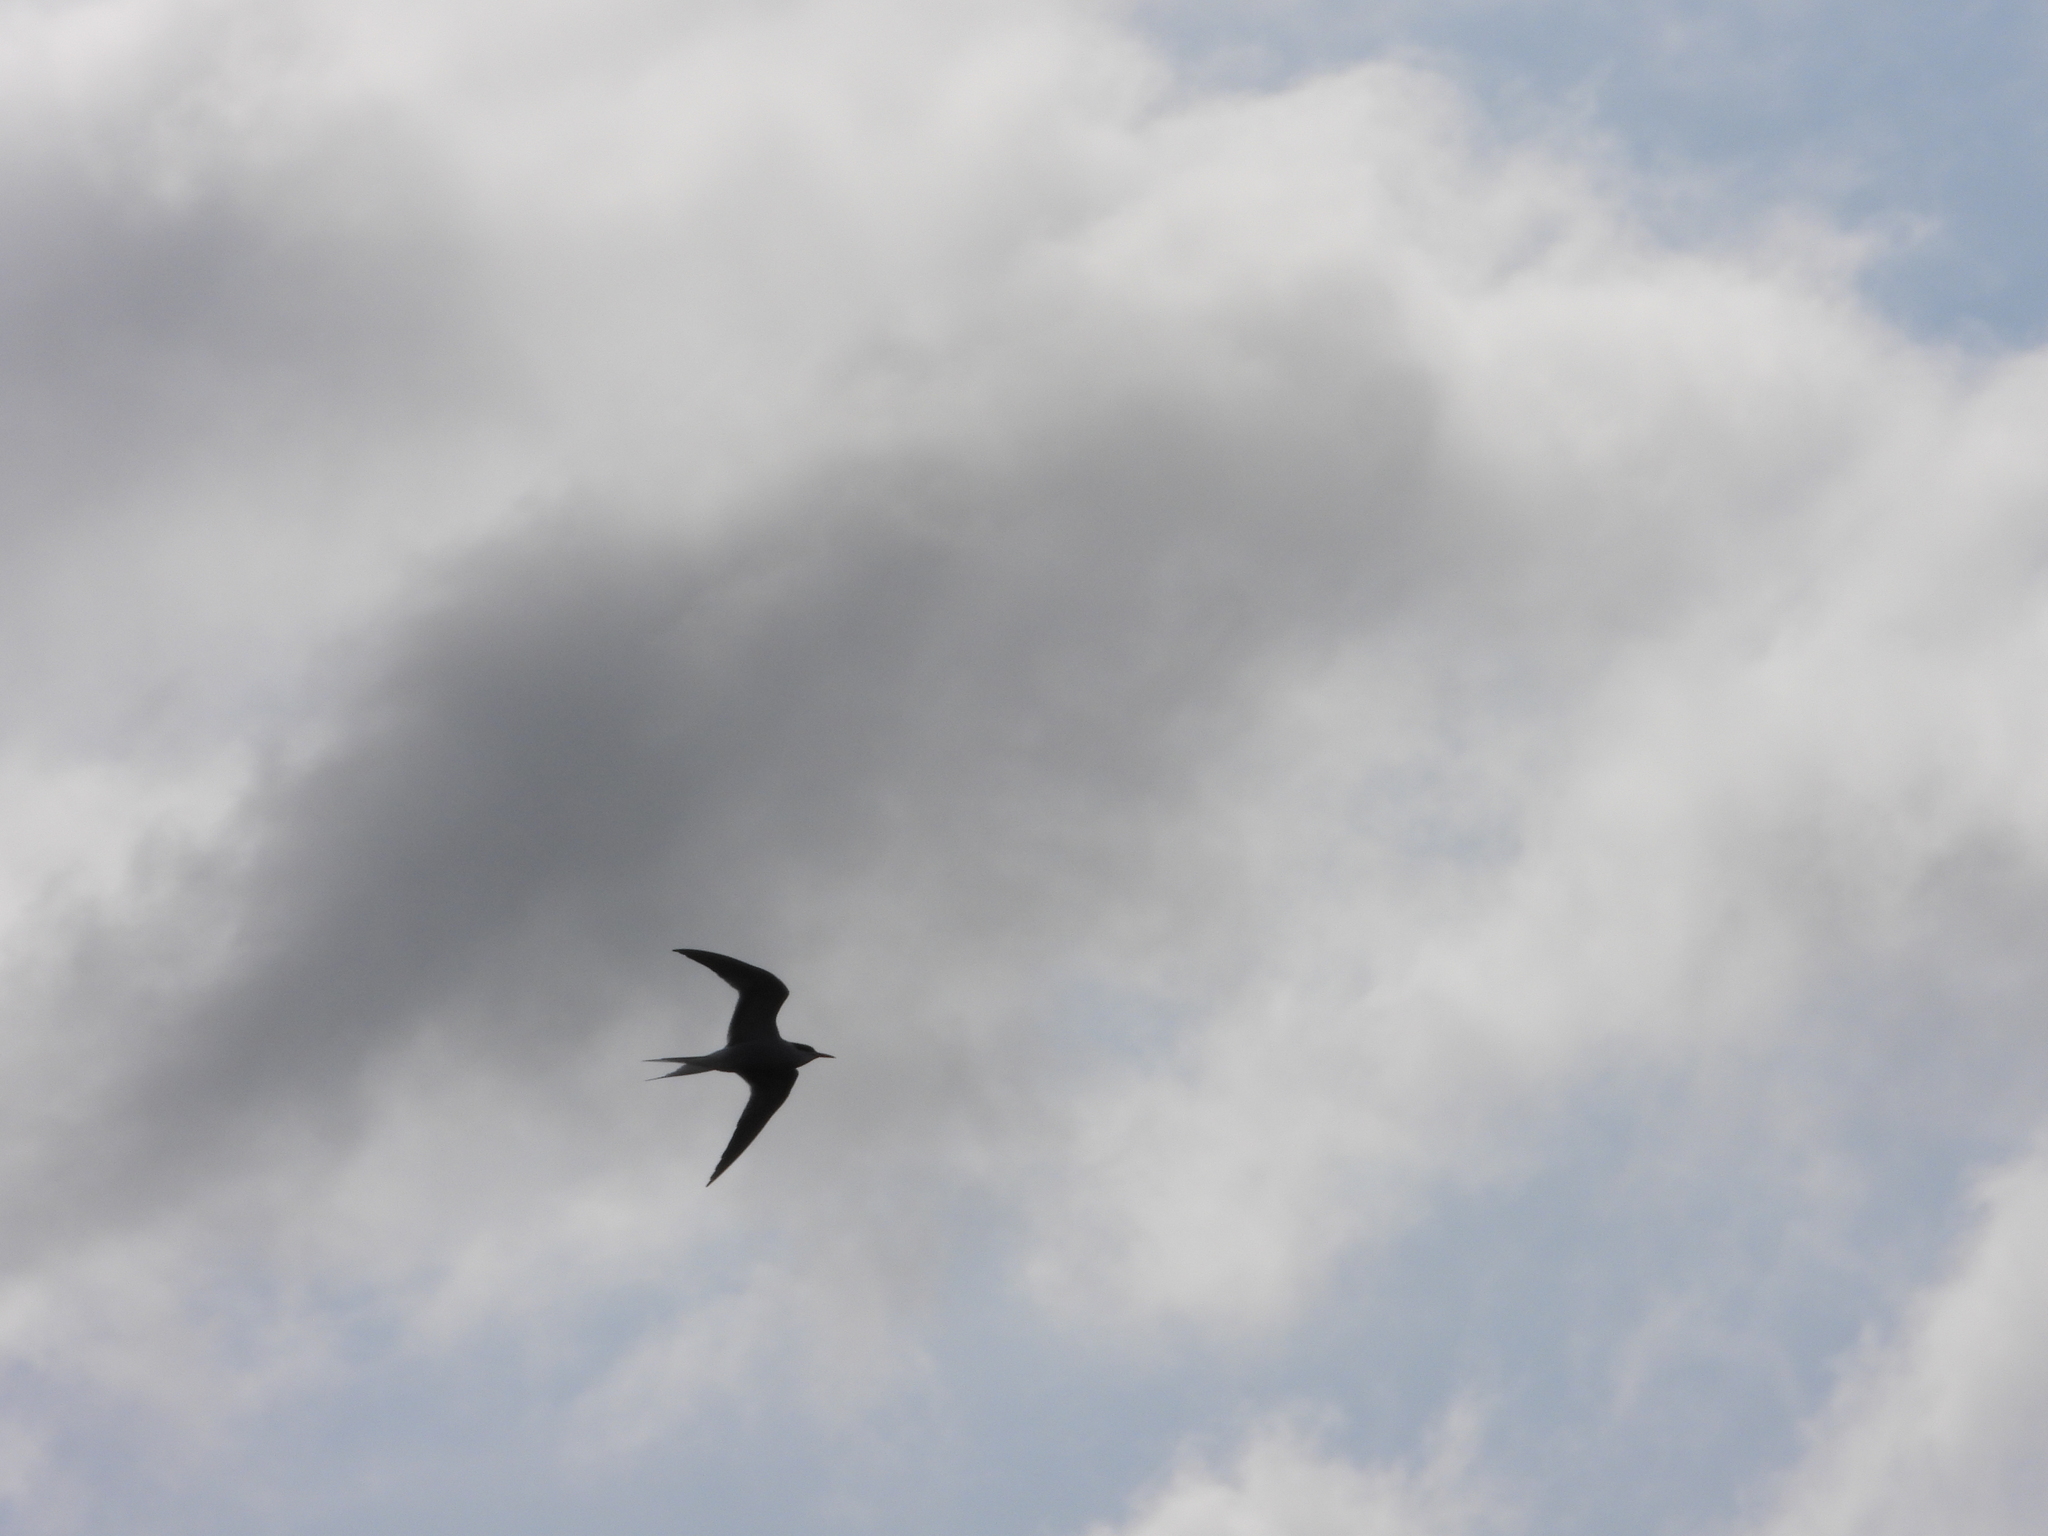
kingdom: Animalia
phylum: Chordata
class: Aves
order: Charadriiformes
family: Laridae
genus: Sterna
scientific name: Sterna hirundo
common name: Common tern
